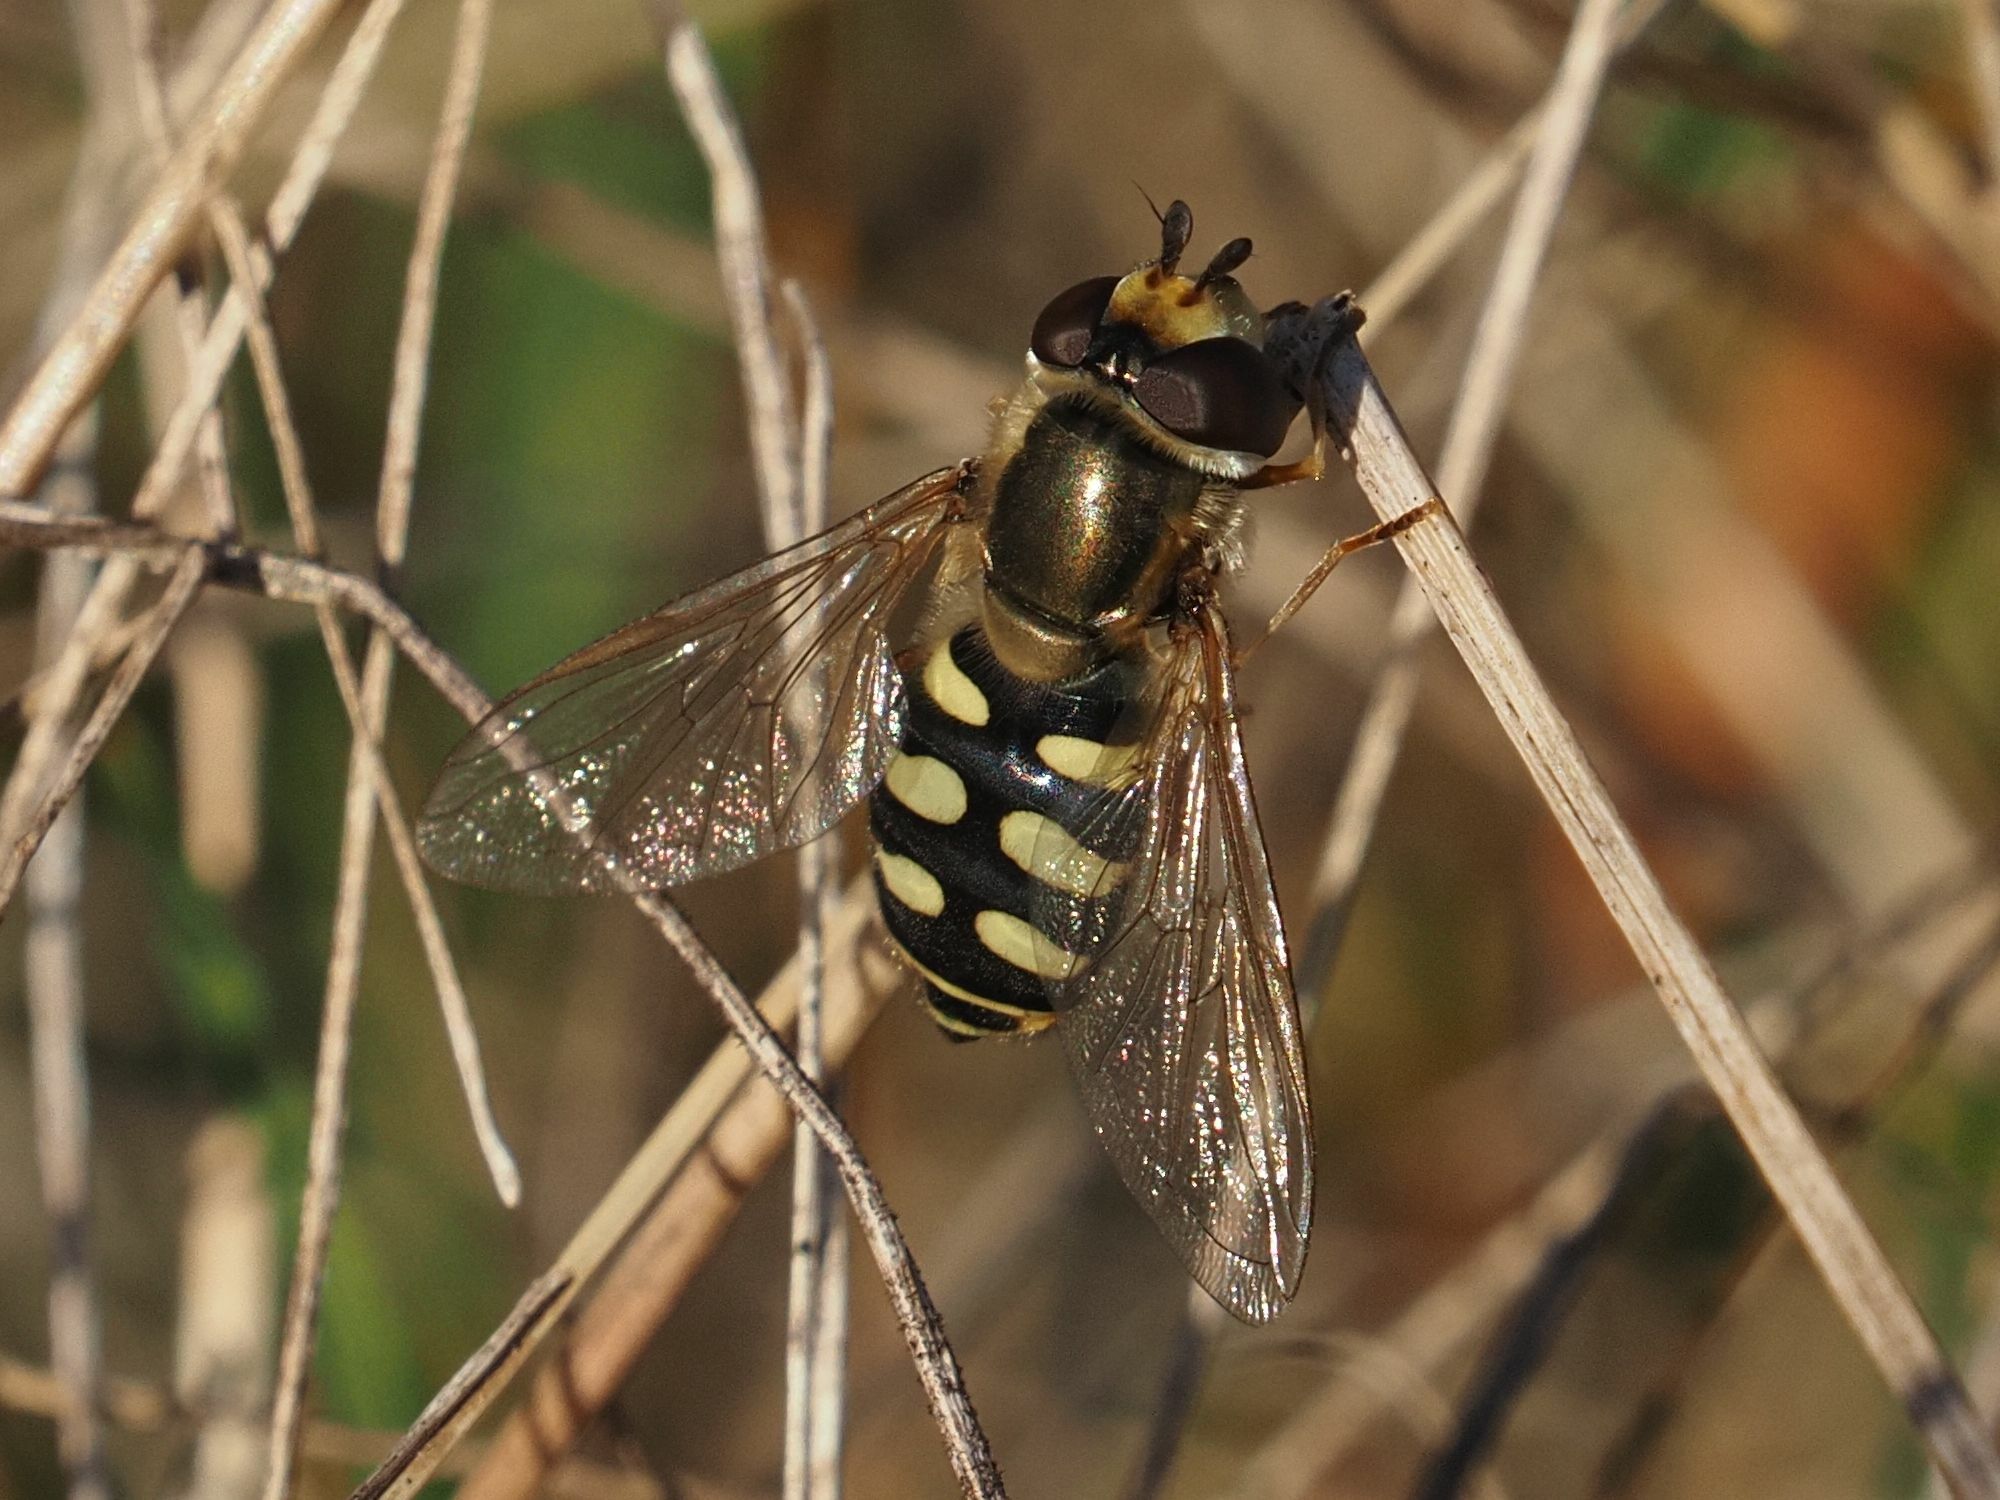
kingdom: Animalia
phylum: Arthropoda
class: Insecta
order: Diptera
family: Syrphidae
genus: Eupeodes
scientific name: Eupeodes corollae
